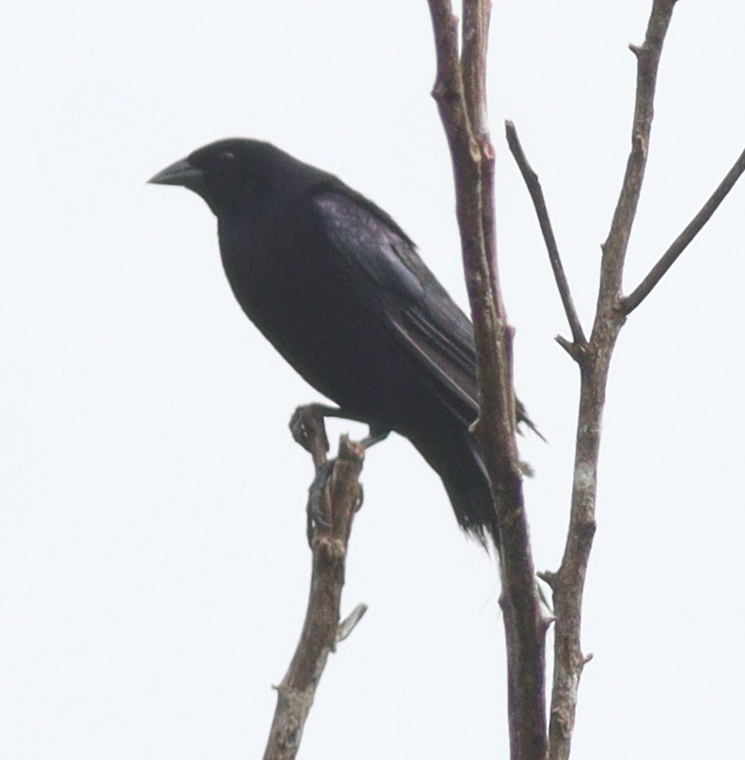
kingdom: Animalia
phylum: Chordata
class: Aves
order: Passeriformes
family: Icteridae
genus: Molothrus
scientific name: Molothrus bonariensis
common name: Shiny cowbird
